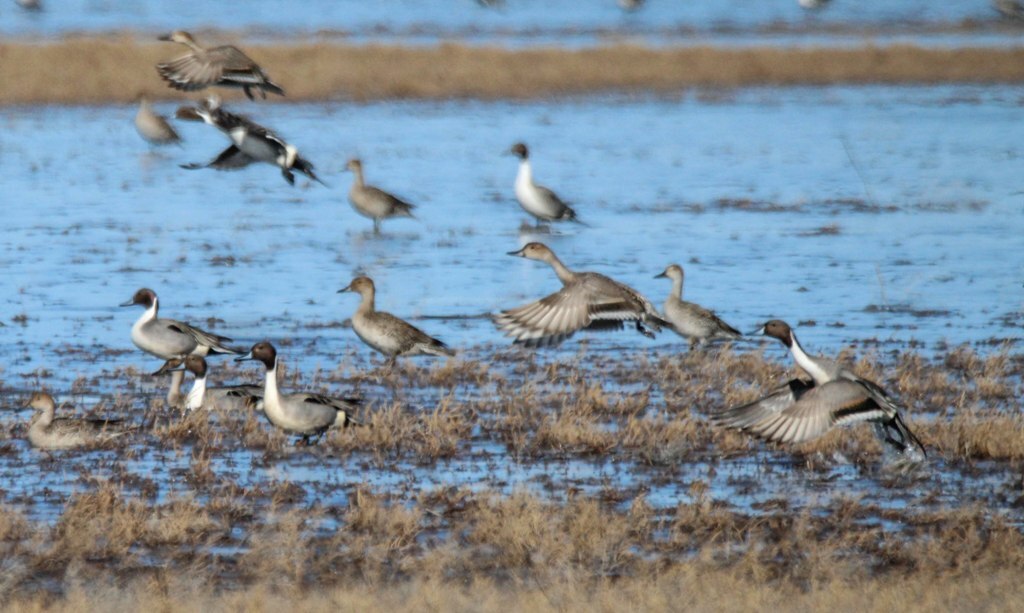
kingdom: Animalia
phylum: Chordata
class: Aves
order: Anseriformes
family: Anatidae
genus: Anas
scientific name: Anas acuta
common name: Northern pintail
